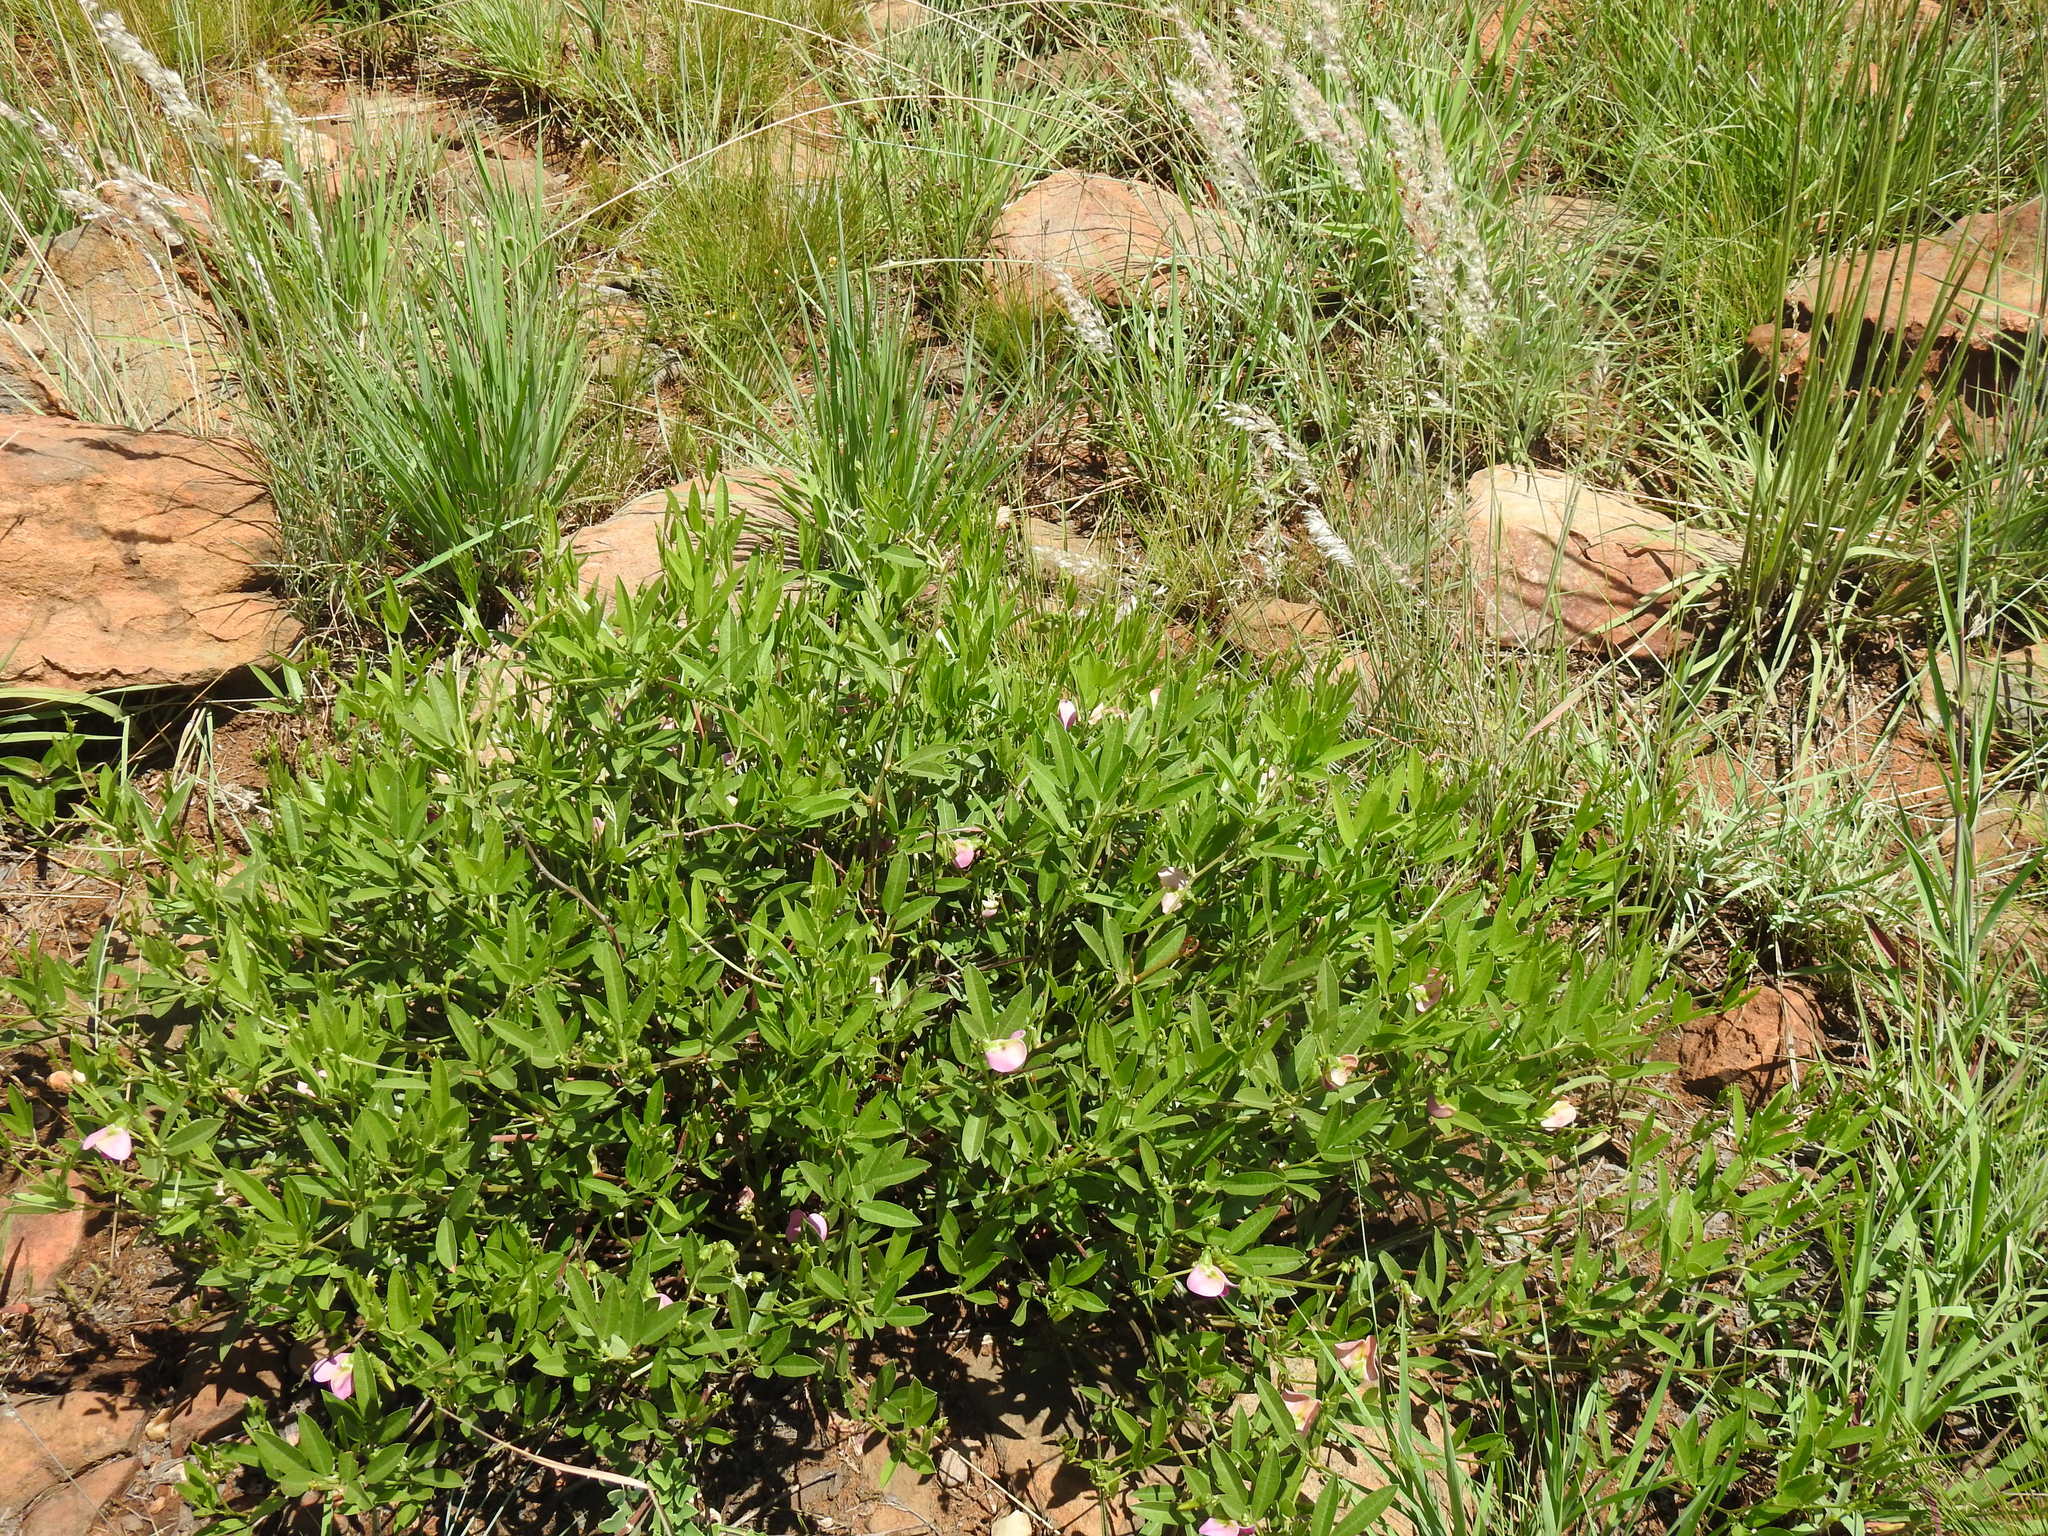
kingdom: Plantae
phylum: Tracheophyta
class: Magnoliopsida
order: Fabales
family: Fabaceae
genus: Sphenostylis
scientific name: Sphenostylis angustifolia
